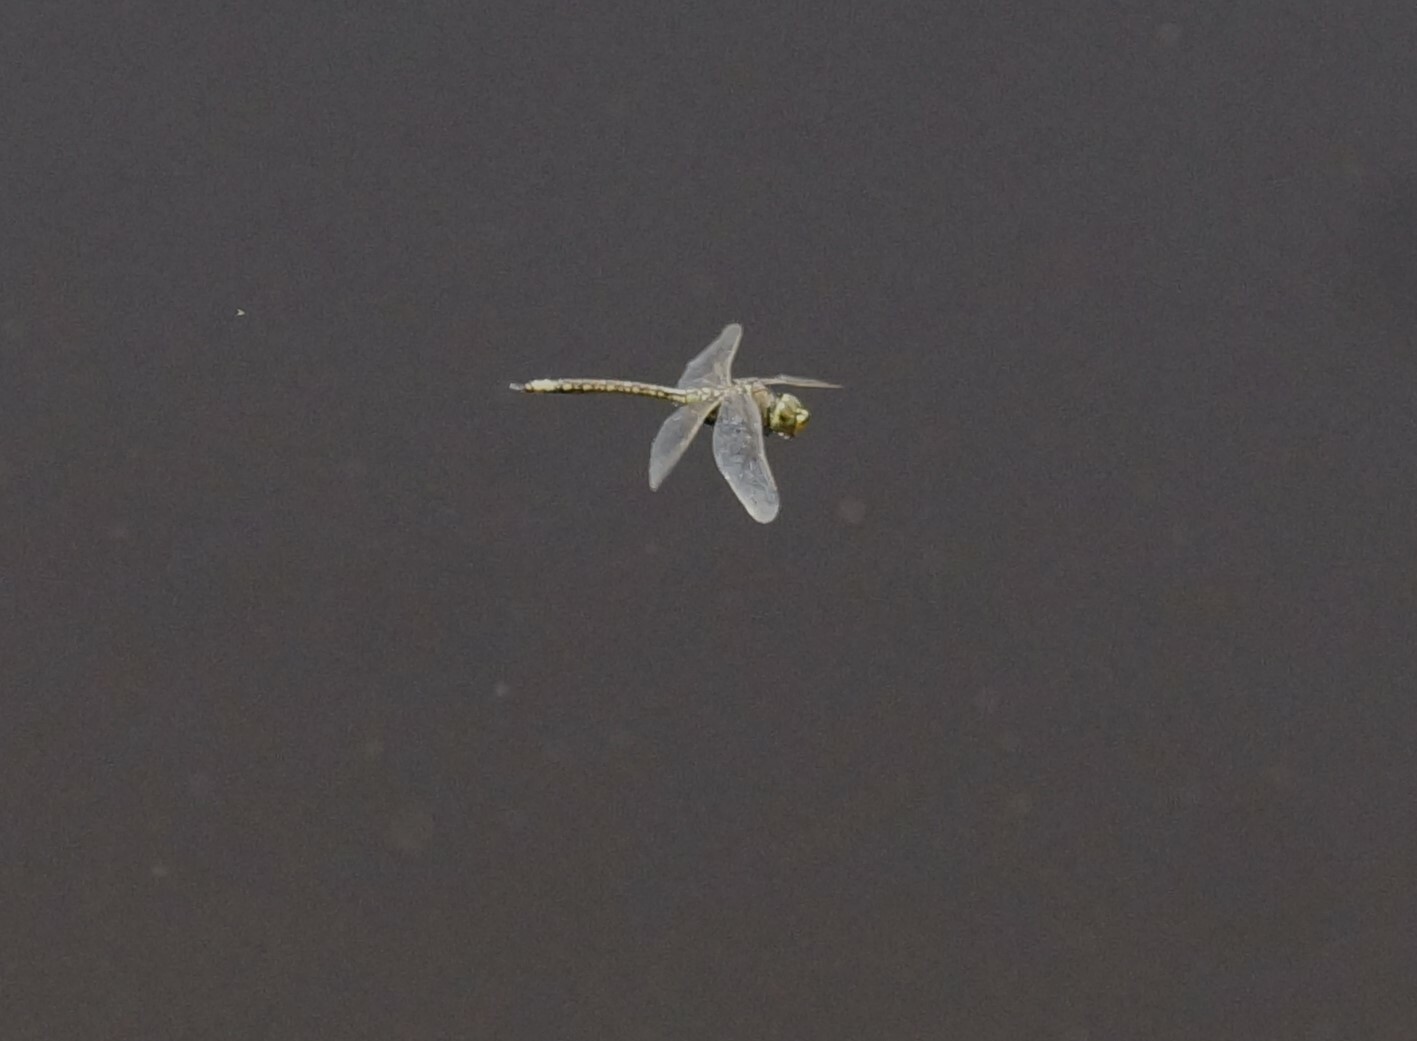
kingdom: Animalia
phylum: Arthropoda
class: Insecta
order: Odonata
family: Aeshnidae
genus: Anax
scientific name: Anax papuensis
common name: Australian emperor
